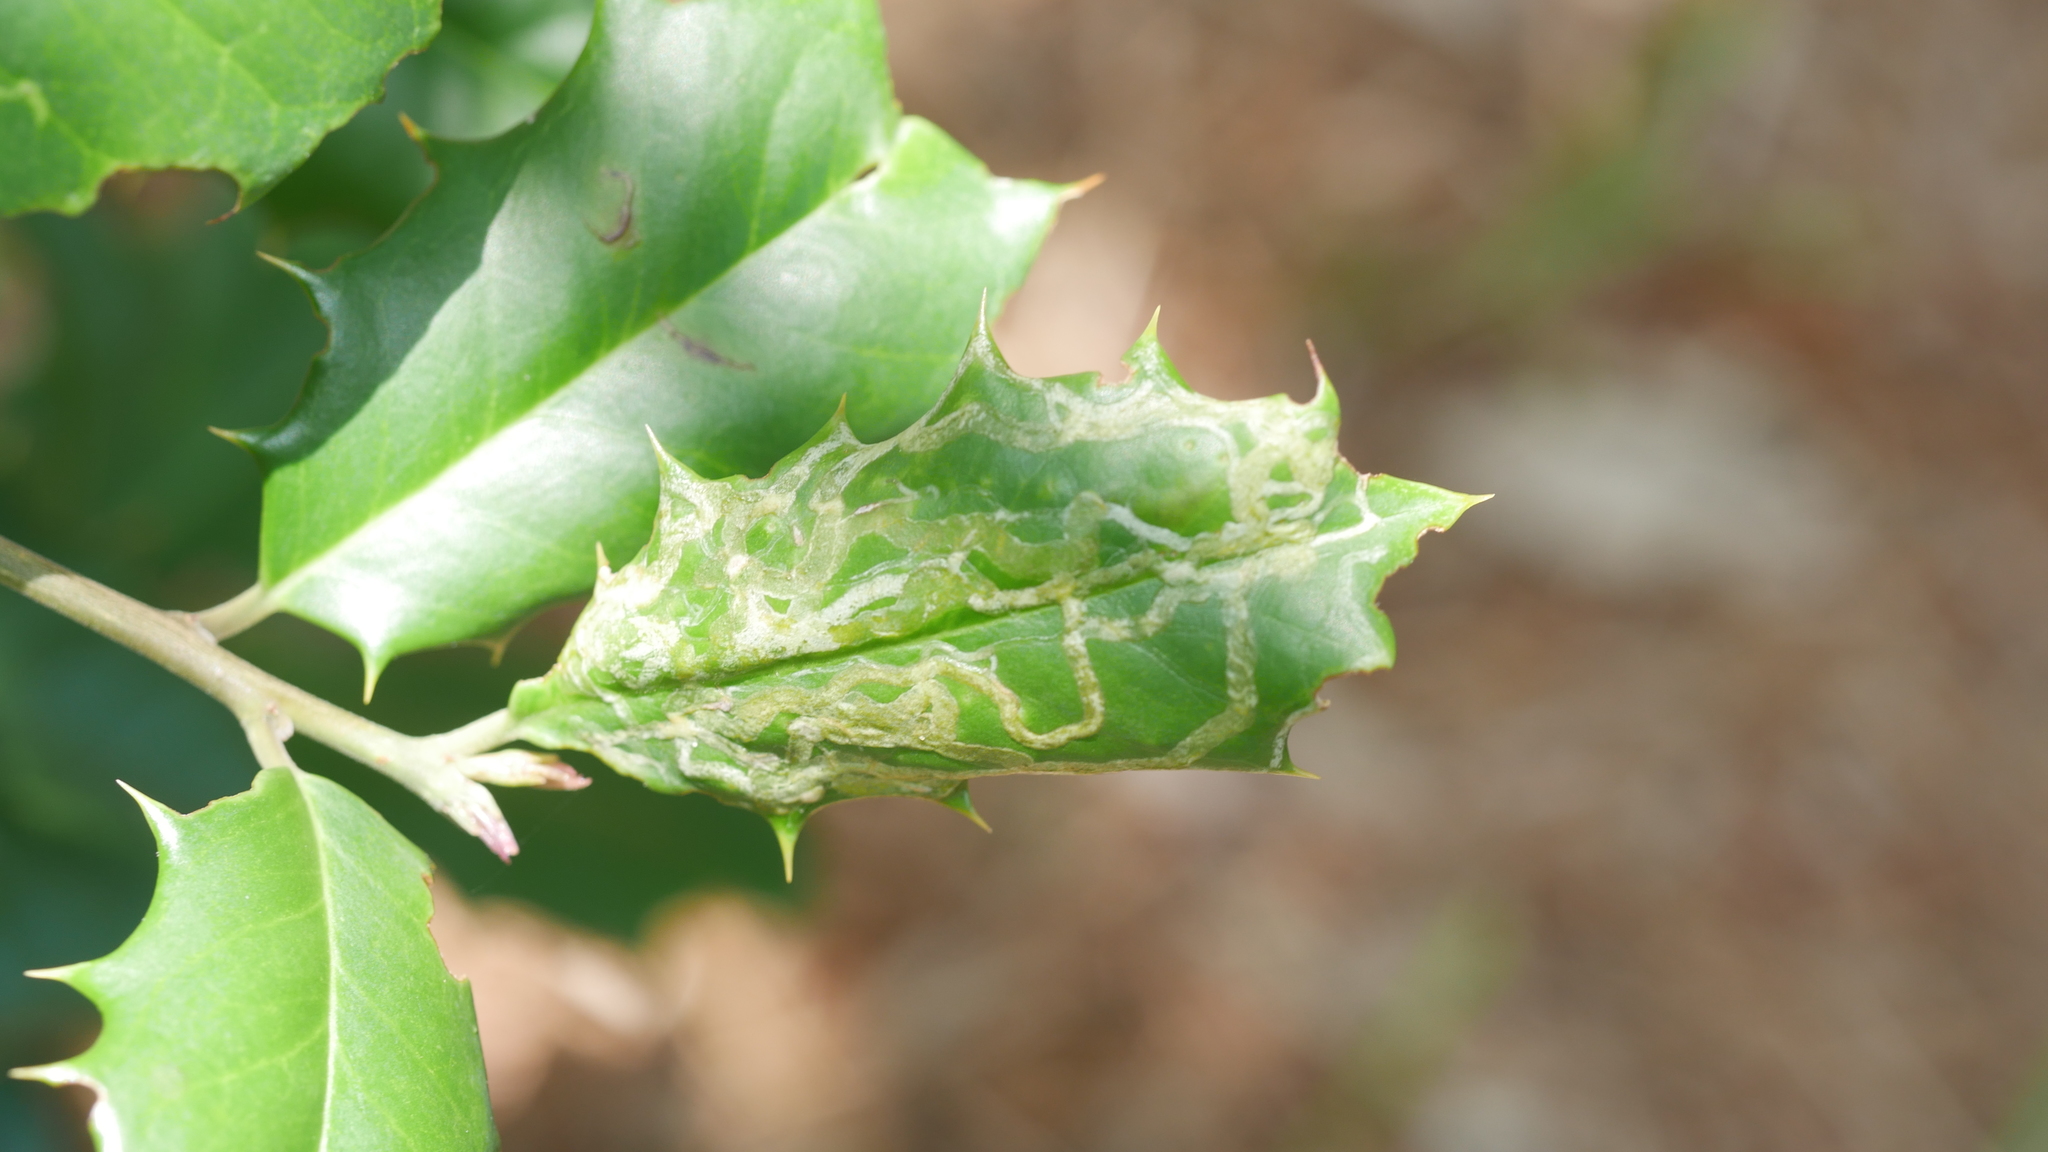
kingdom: Animalia
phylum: Arthropoda
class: Insecta
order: Diptera
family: Agromyzidae
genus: Phytomyza
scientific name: Phytomyza opacae
